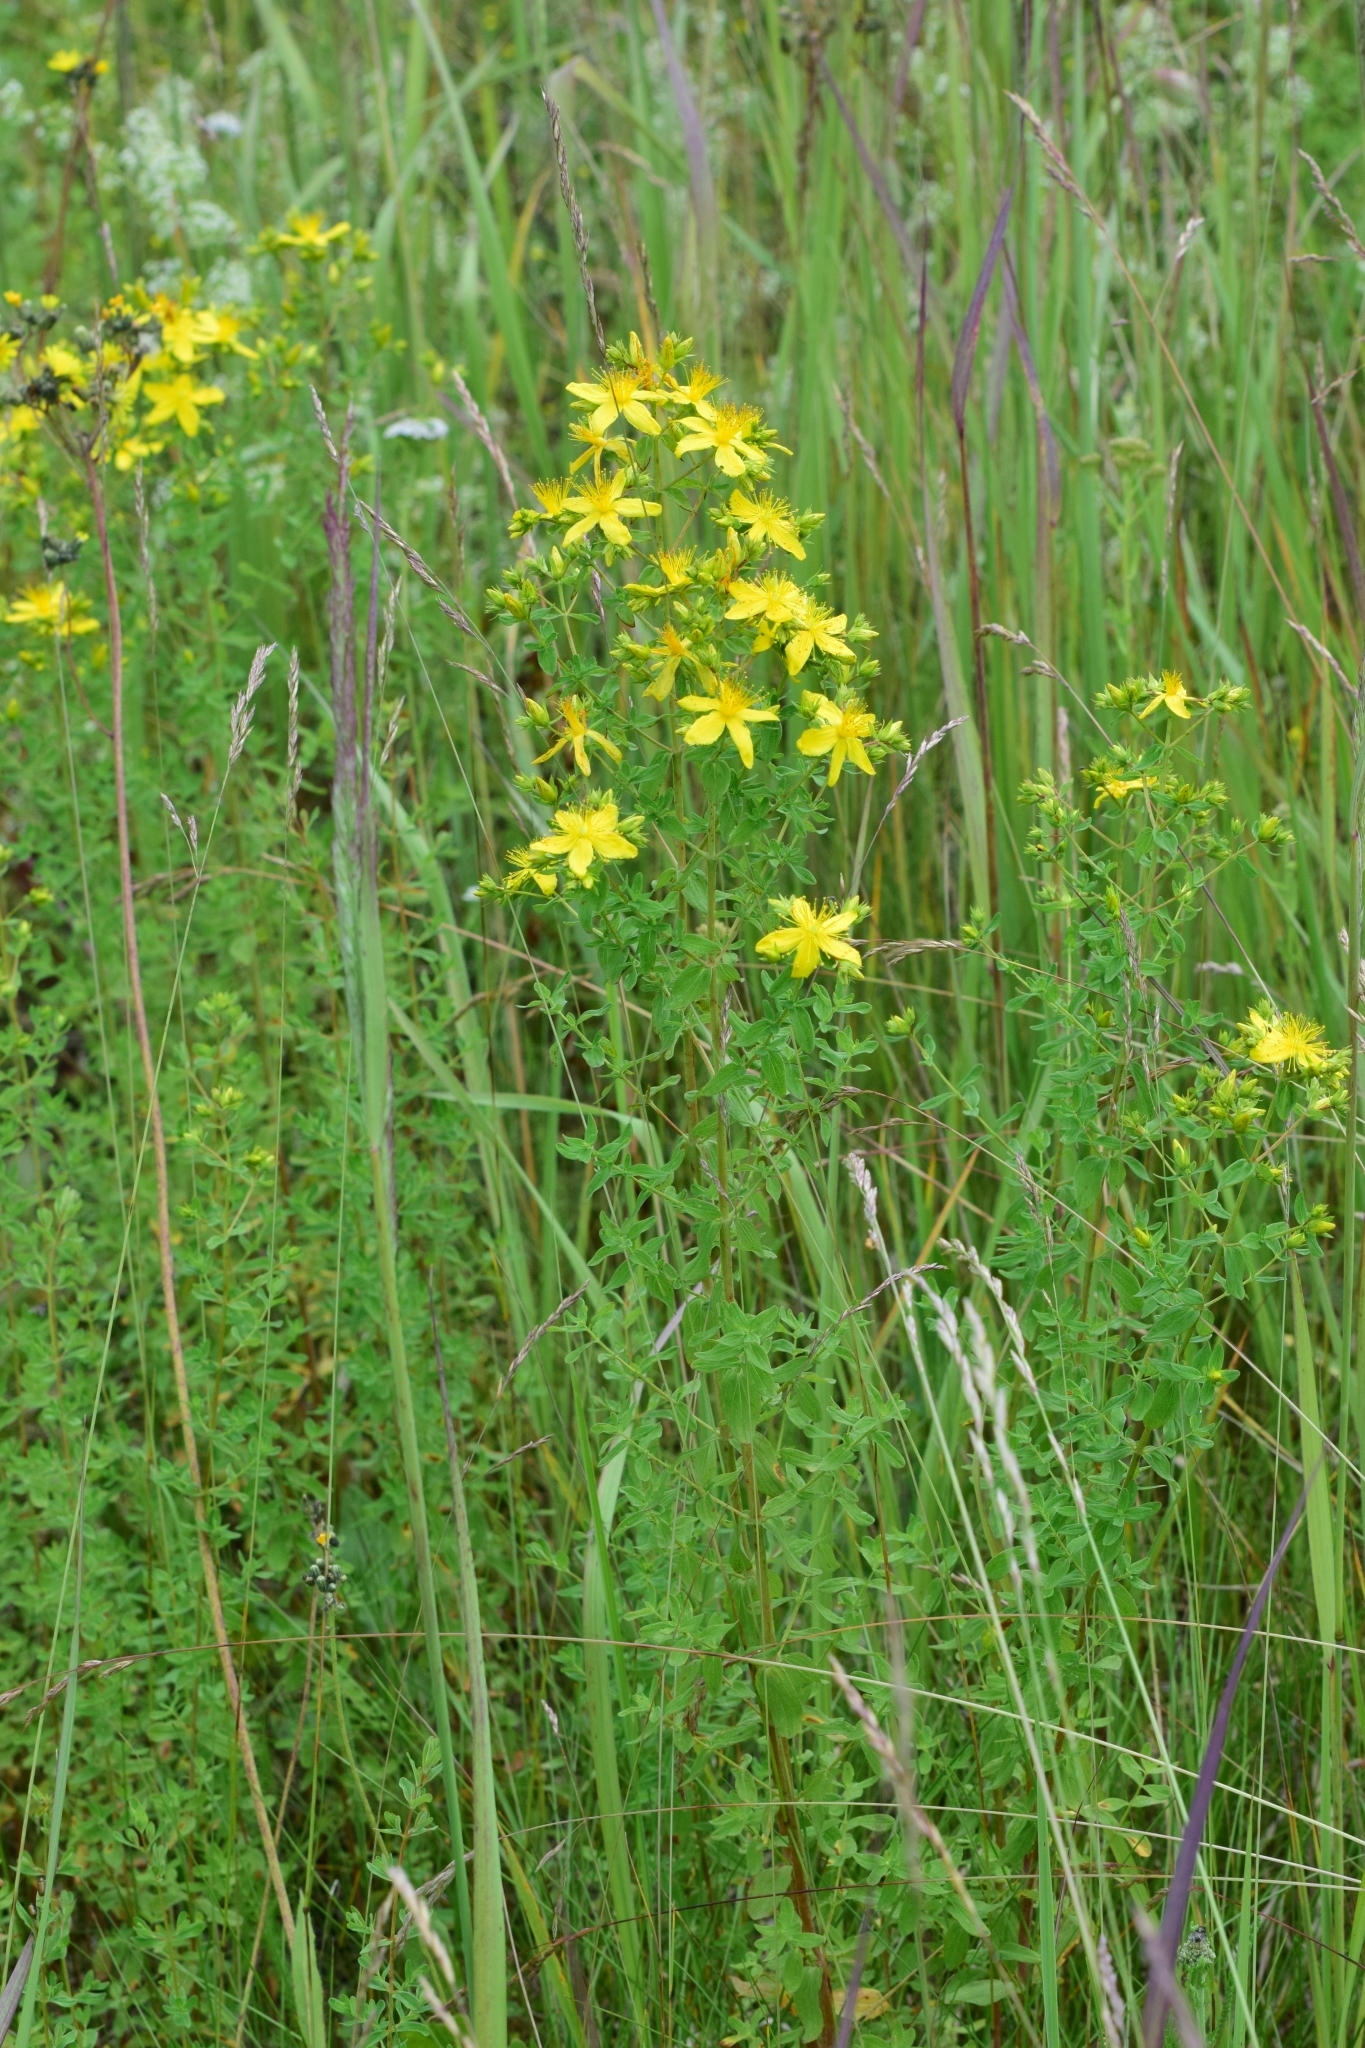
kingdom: Plantae
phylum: Tracheophyta
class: Magnoliopsida
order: Malpighiales
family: Hypericaceae
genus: Hypericum
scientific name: Hypericum perforatum
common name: Common st. johnswort
